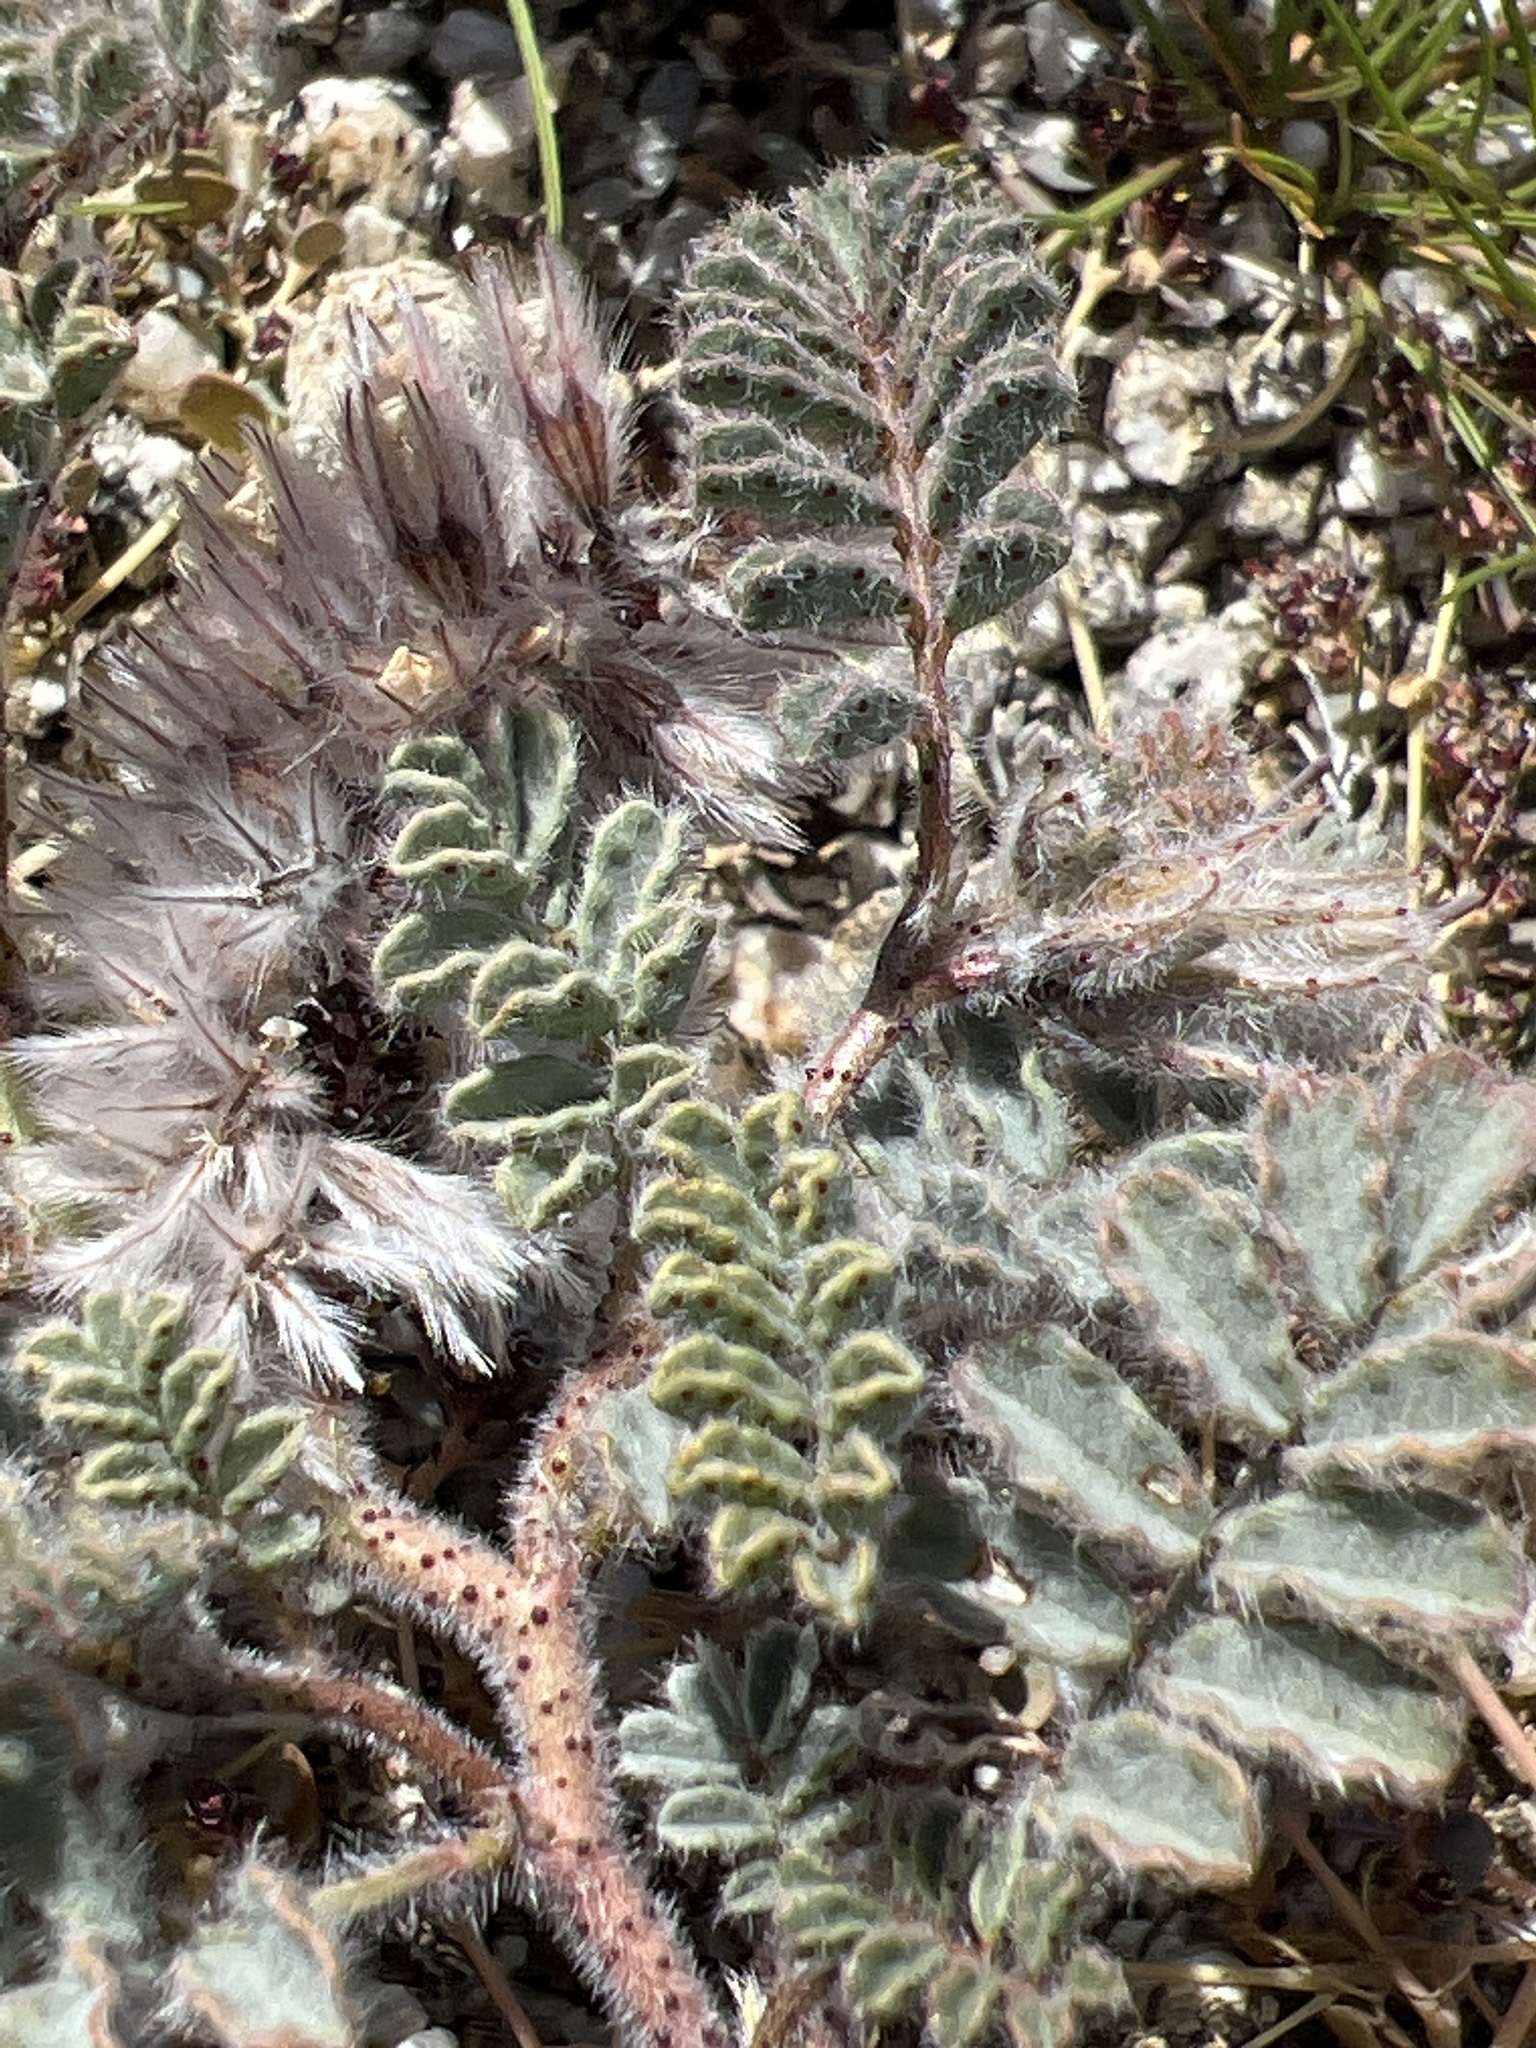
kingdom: Plantae
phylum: Tracheophyta
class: Magnoliopsida
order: Fabales
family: Fabaceae
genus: Dalea
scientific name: Dalea mollissima
